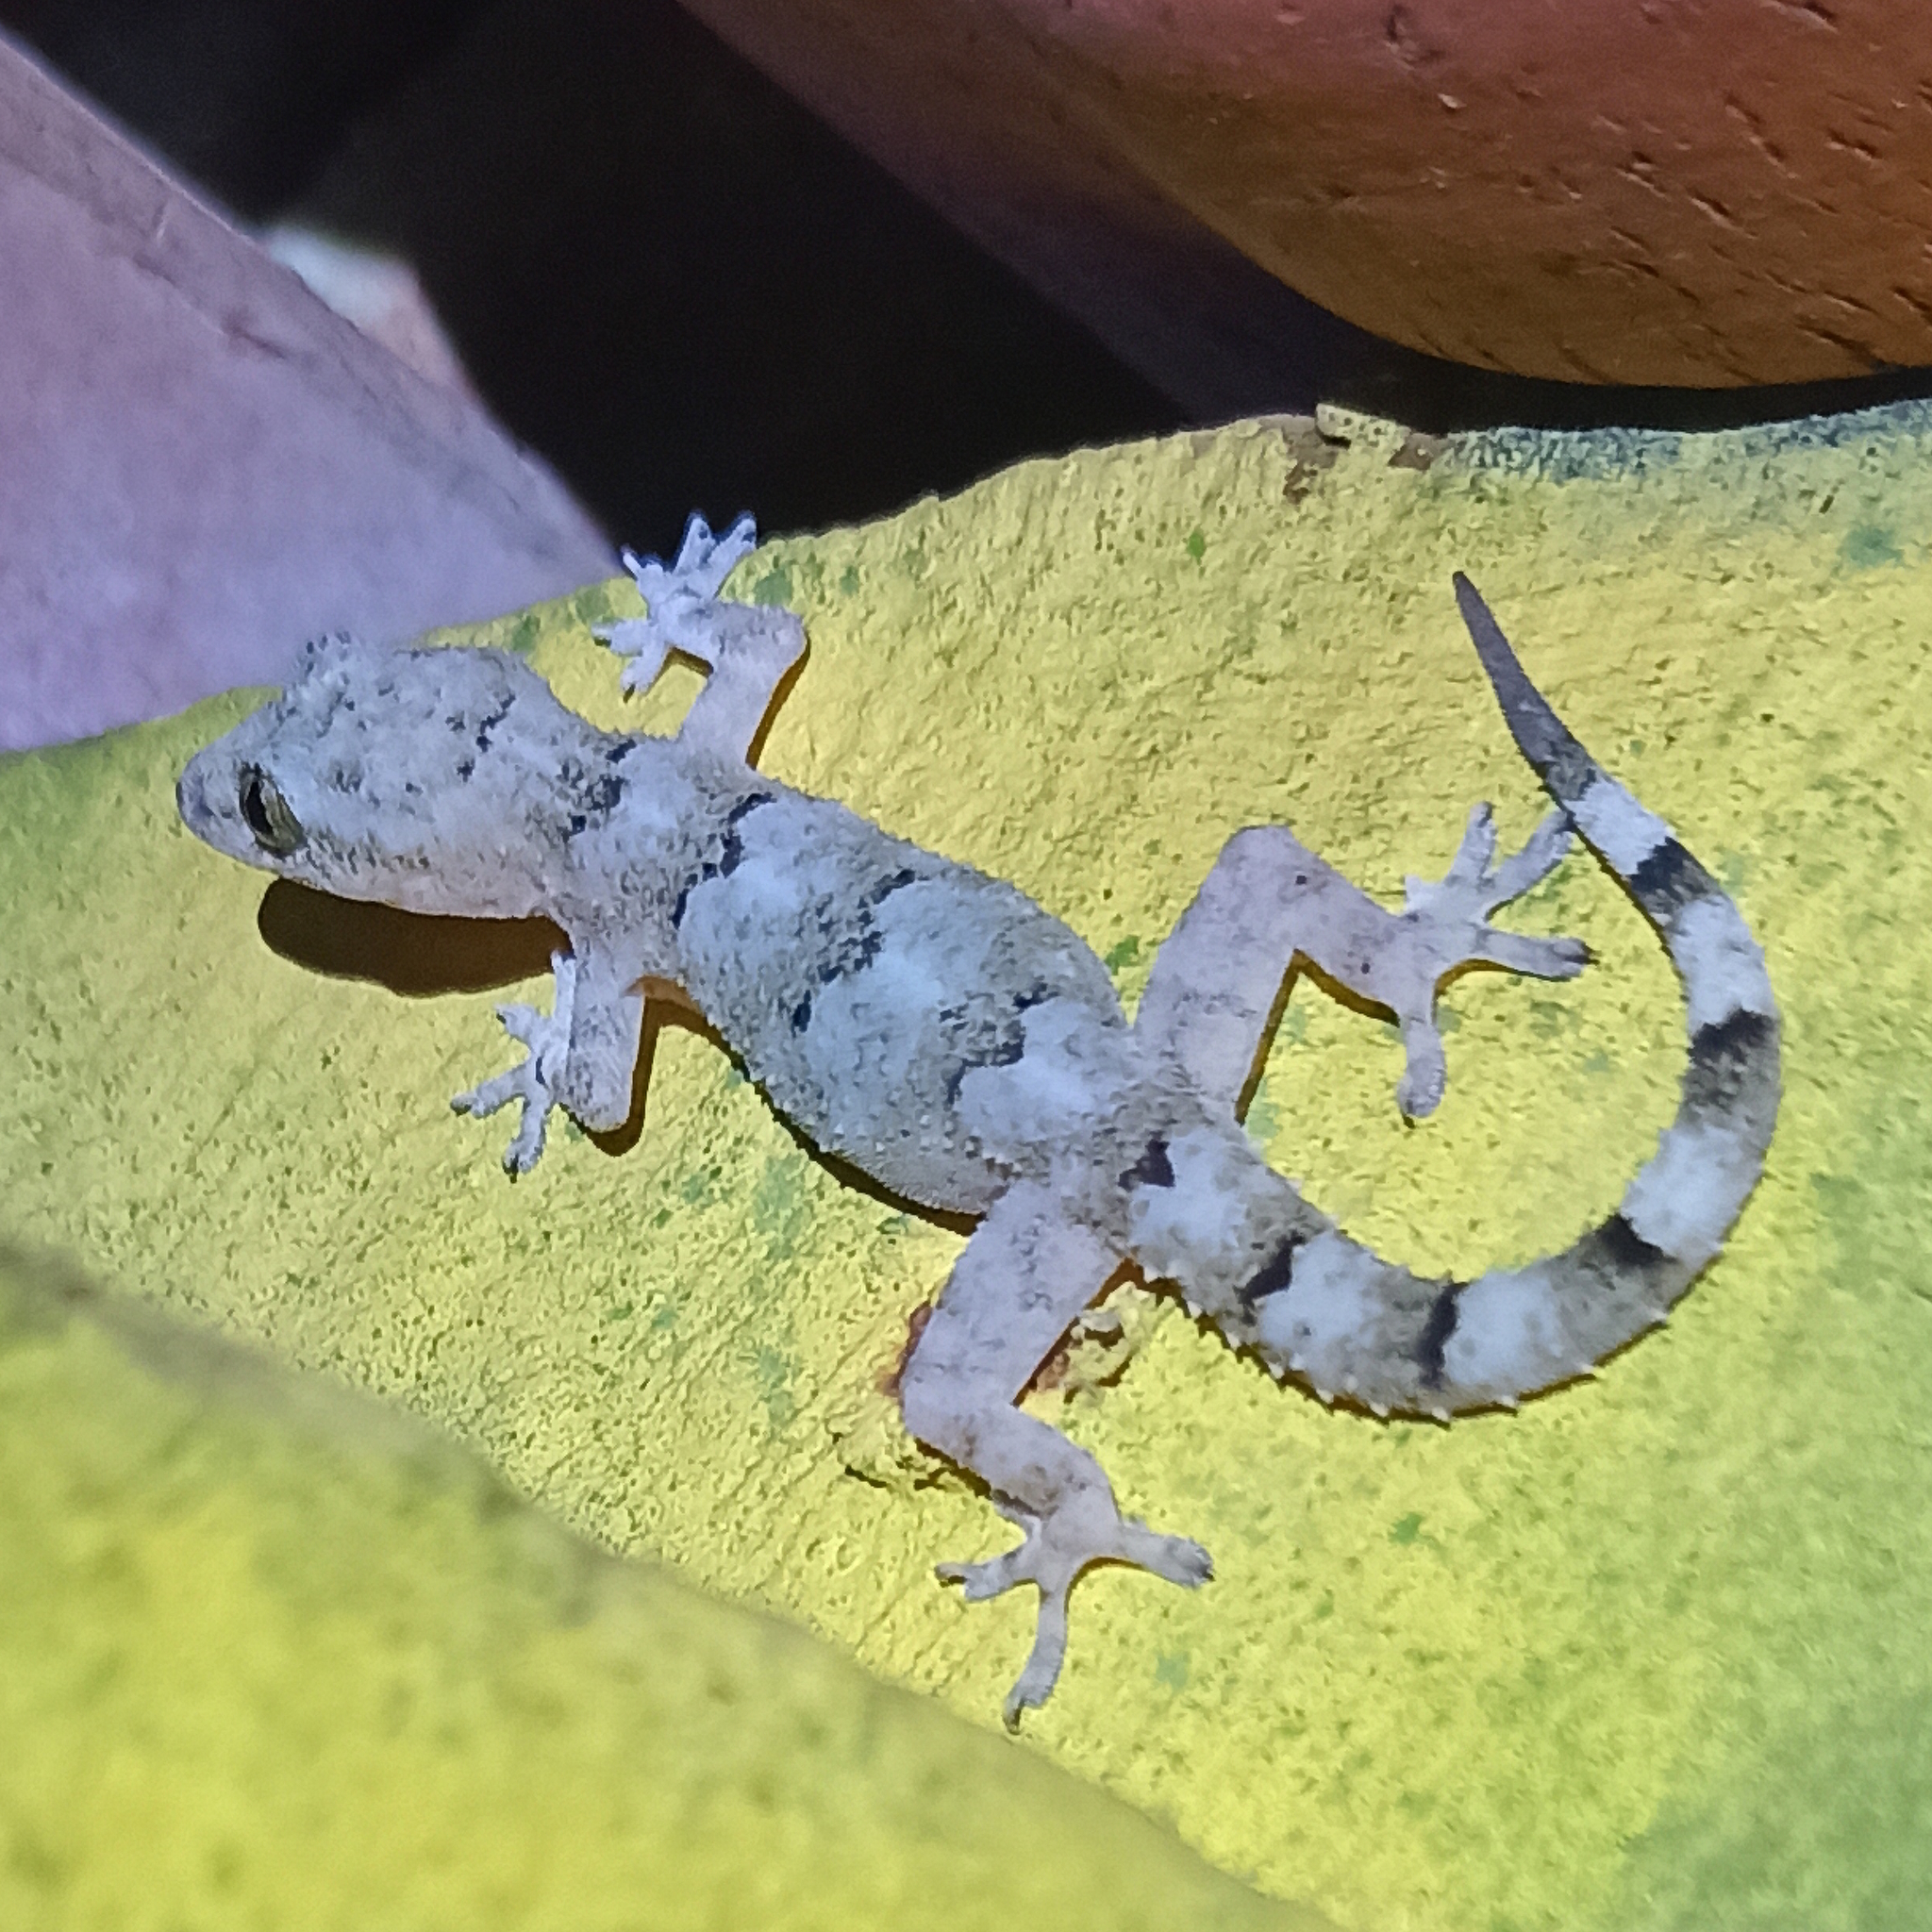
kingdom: Animalia
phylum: Chordata
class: Squamata
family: Gekkonidae
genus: Hemidactylus
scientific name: Hemidactylus mabouia
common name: House gecko
